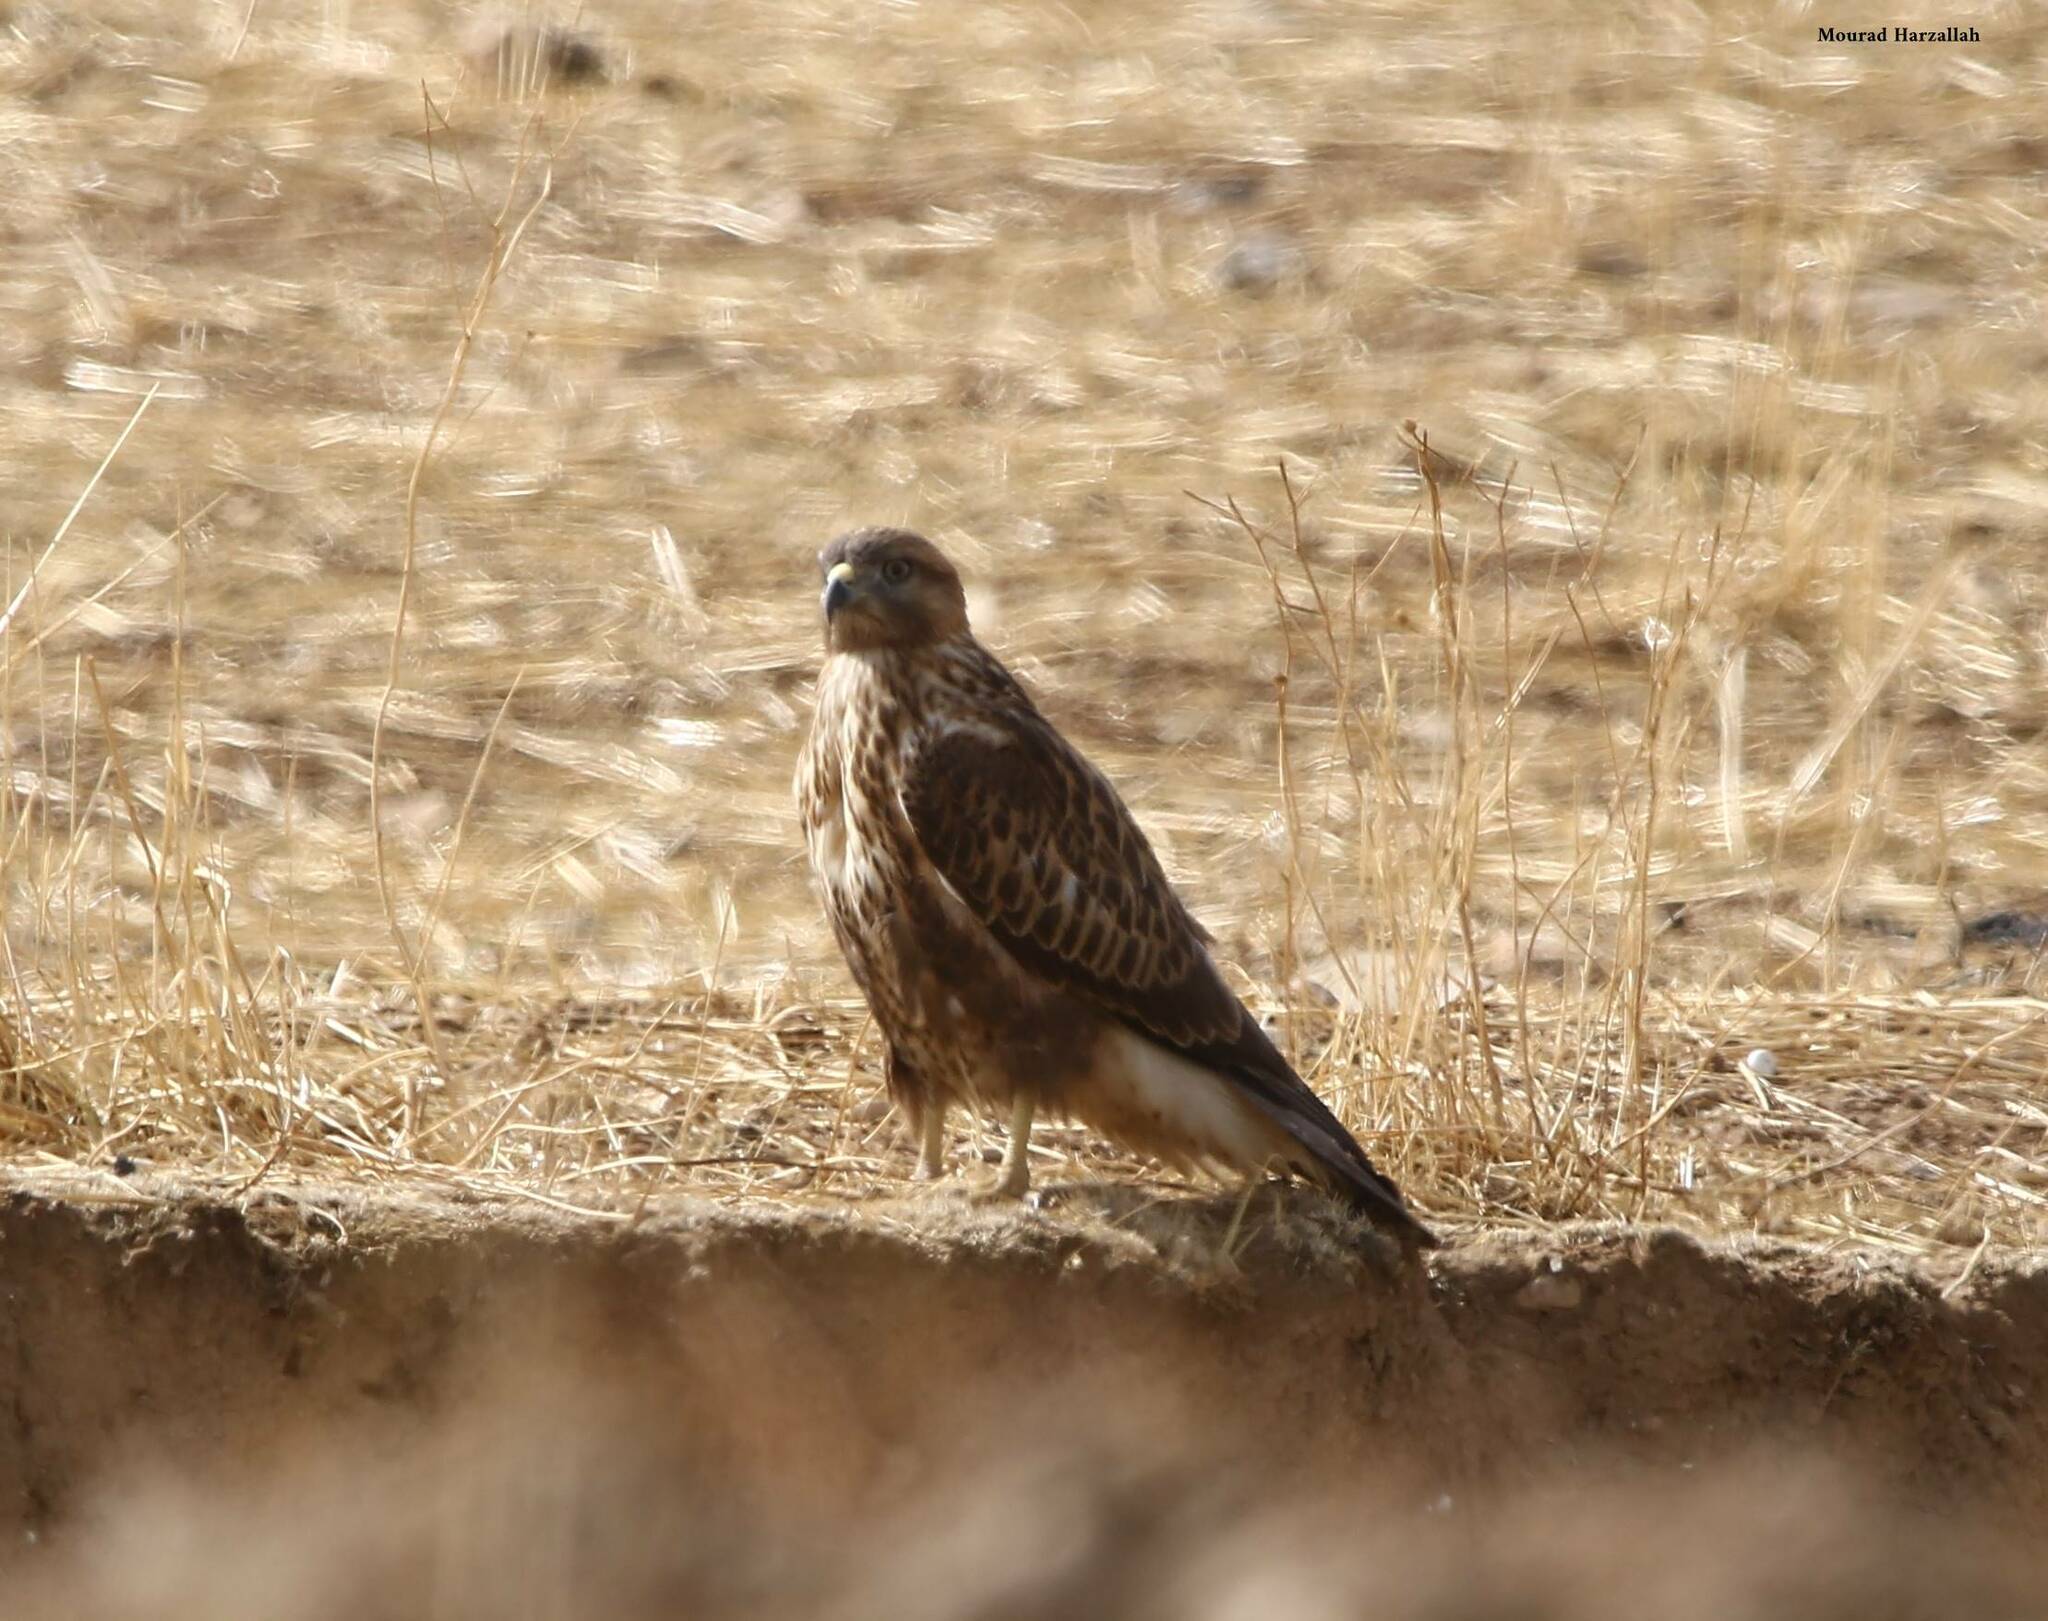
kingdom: Animalia
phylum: Chordata
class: Aves
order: Accipitriformes
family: Accipitridae
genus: Buteo
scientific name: Buteo rufinus
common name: Long-legged buzzard
